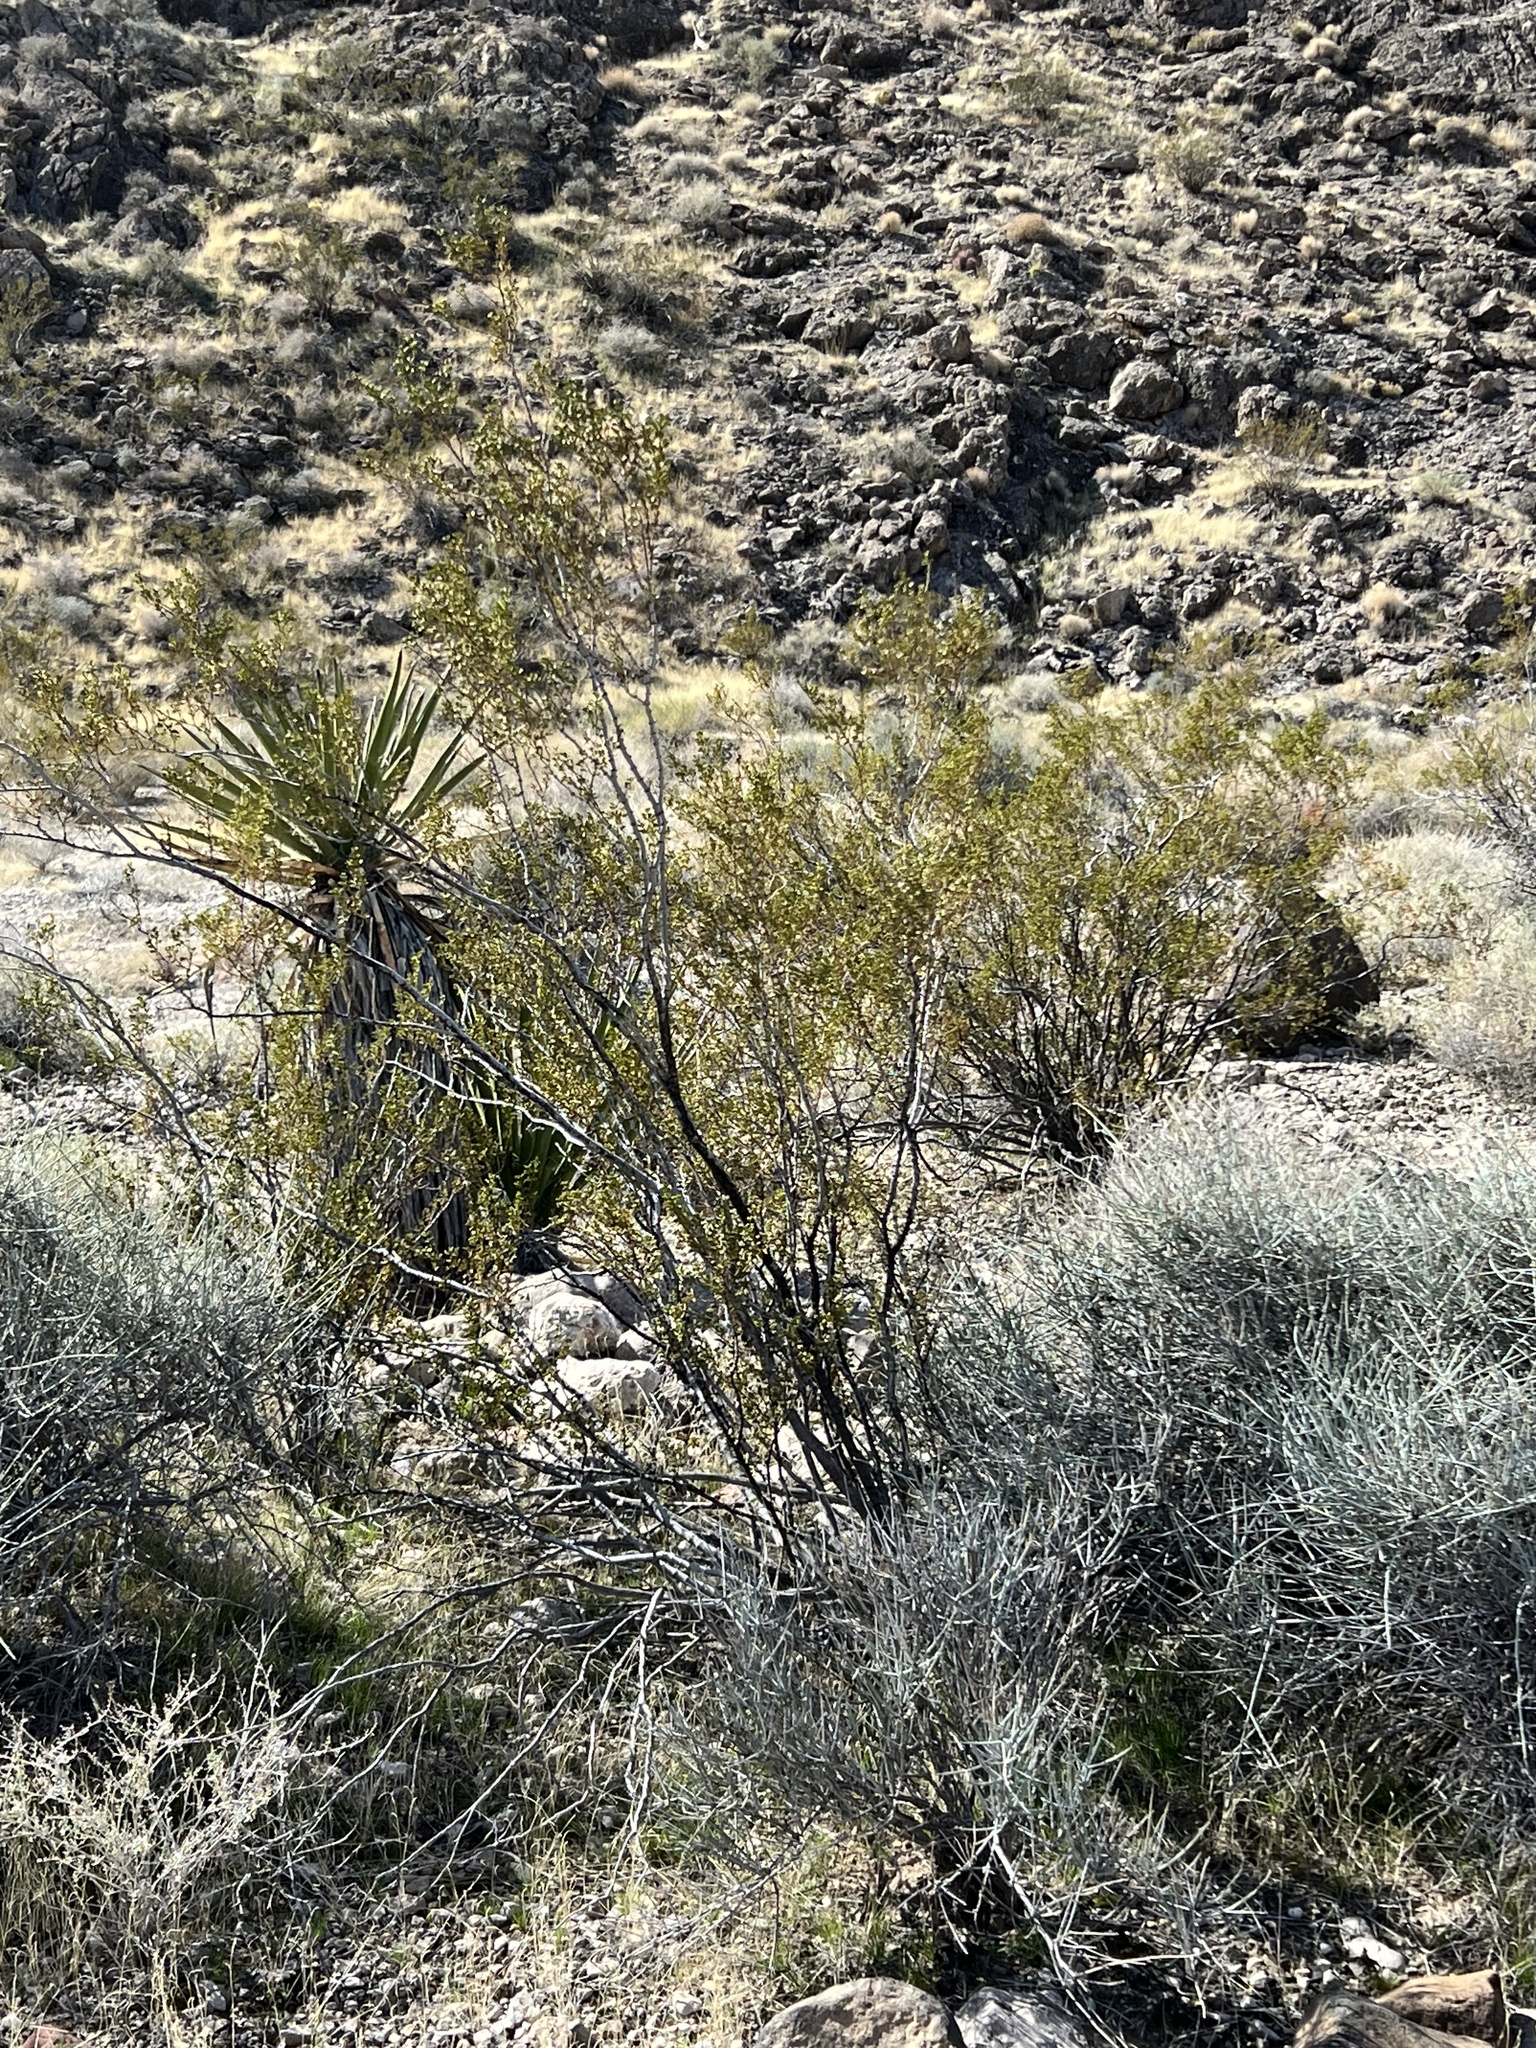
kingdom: Plantae
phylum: Tracheophyta
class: Magnoliopsida
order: Zygophyllales
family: Zygophyllaceae
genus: Larrea
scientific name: Larrea tridentata
